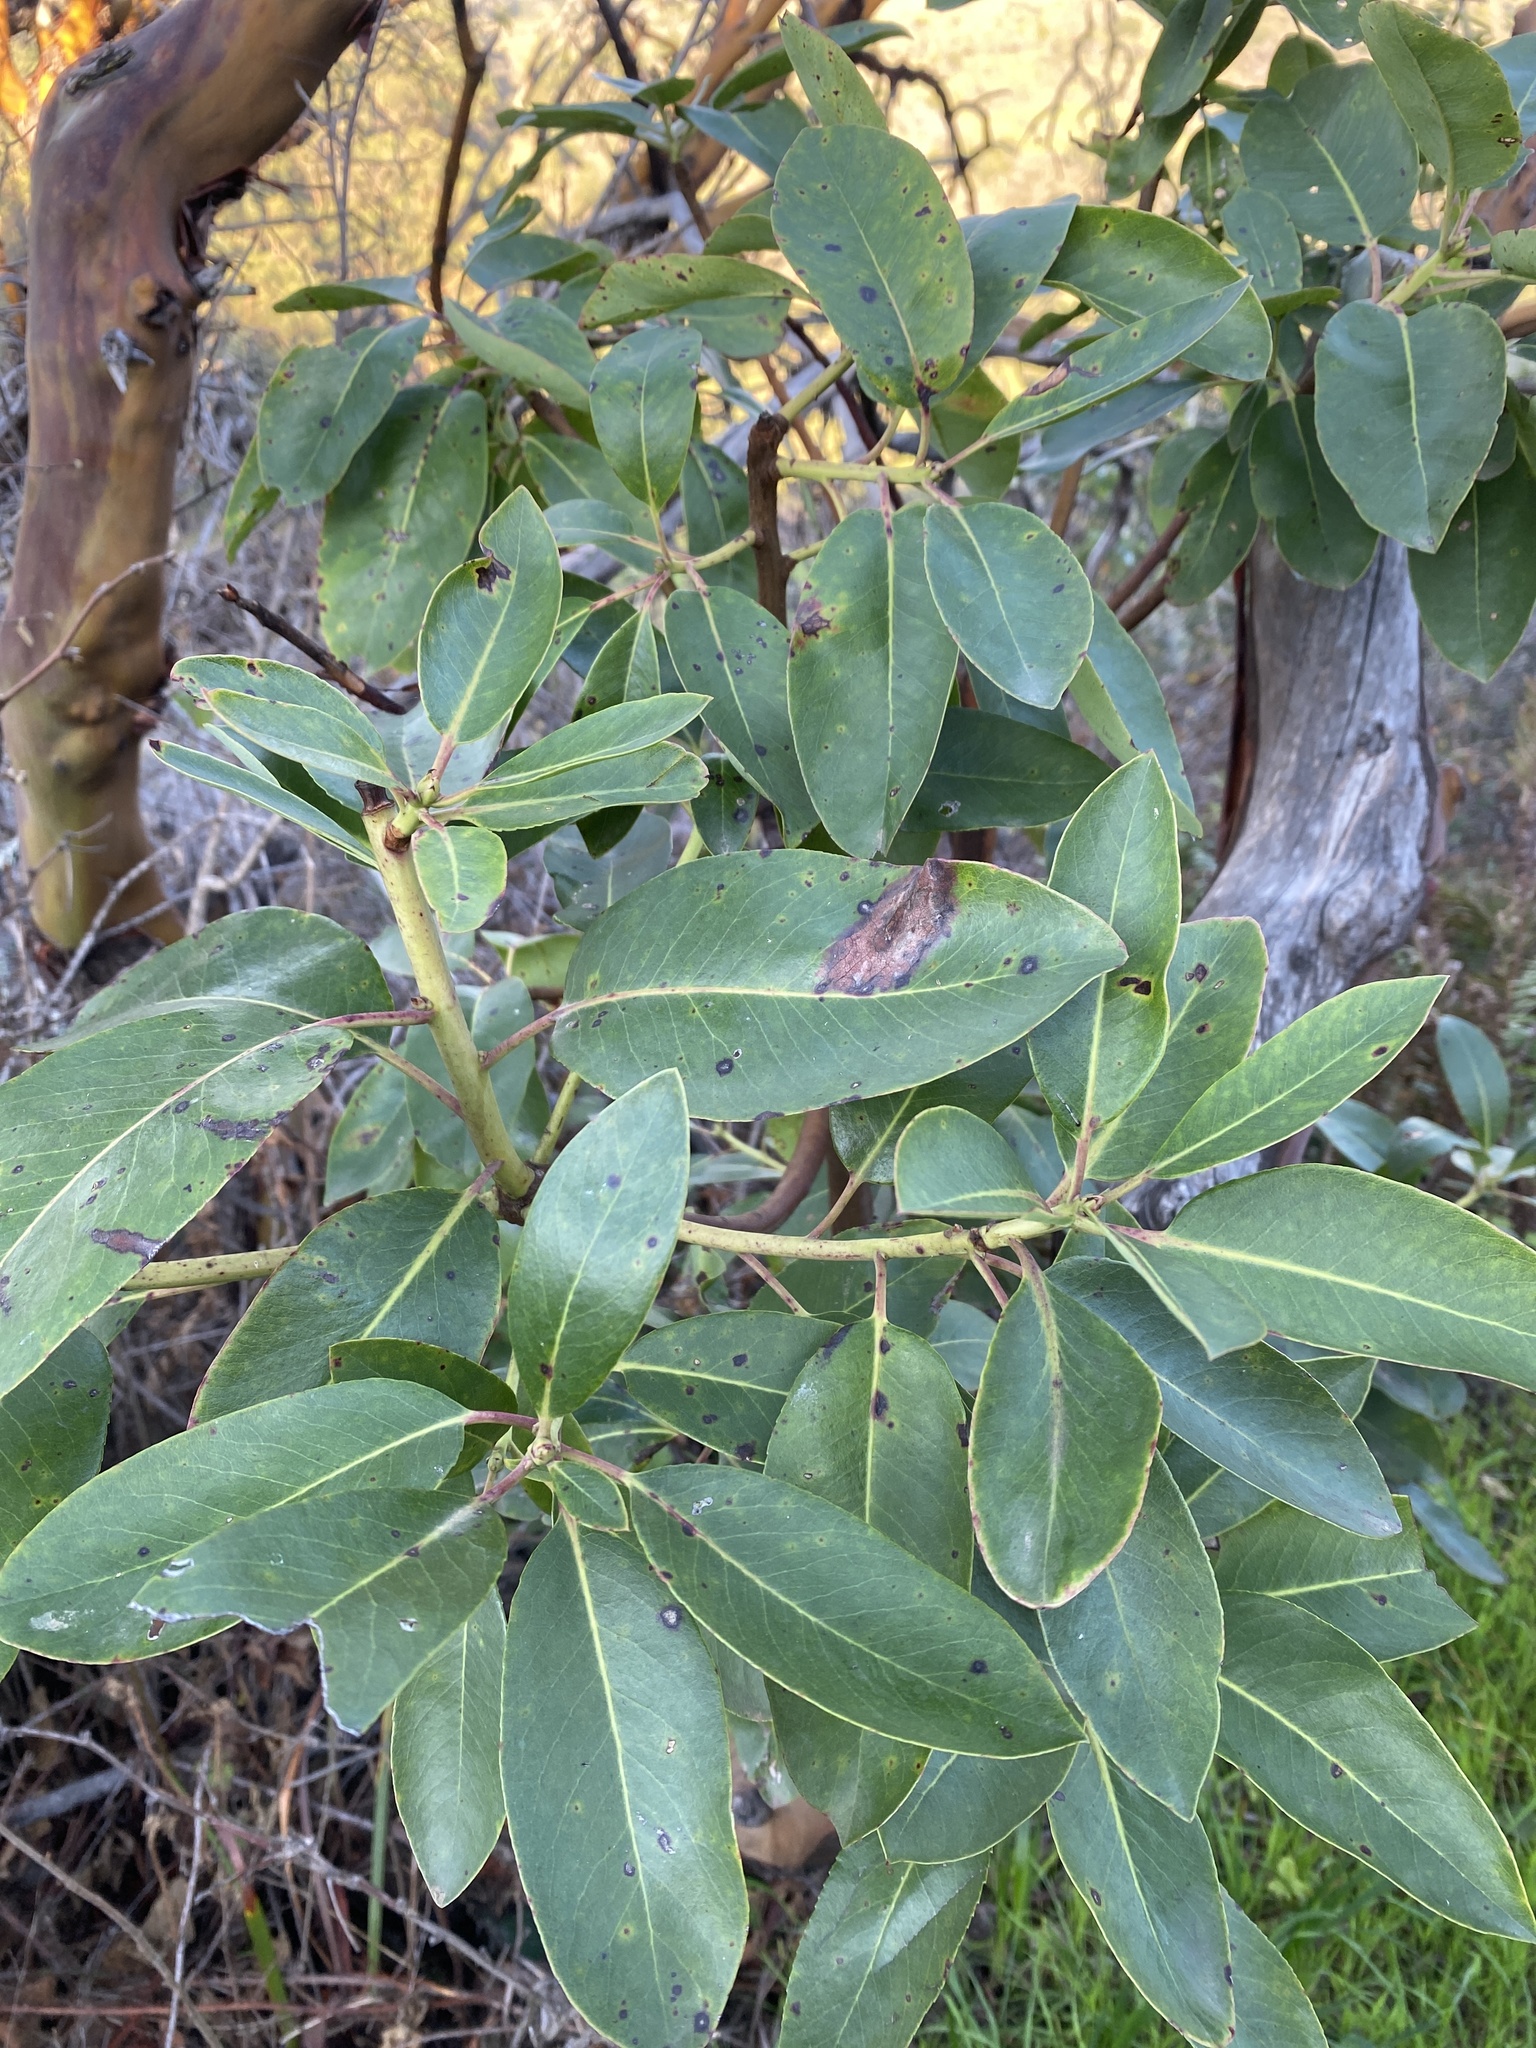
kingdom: Plantae
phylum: Tracheophyta
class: Magnoliopsida
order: Ericales
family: Ericaceae
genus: Arbutus
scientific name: Arbutus menziesii
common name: Pacific madrone
